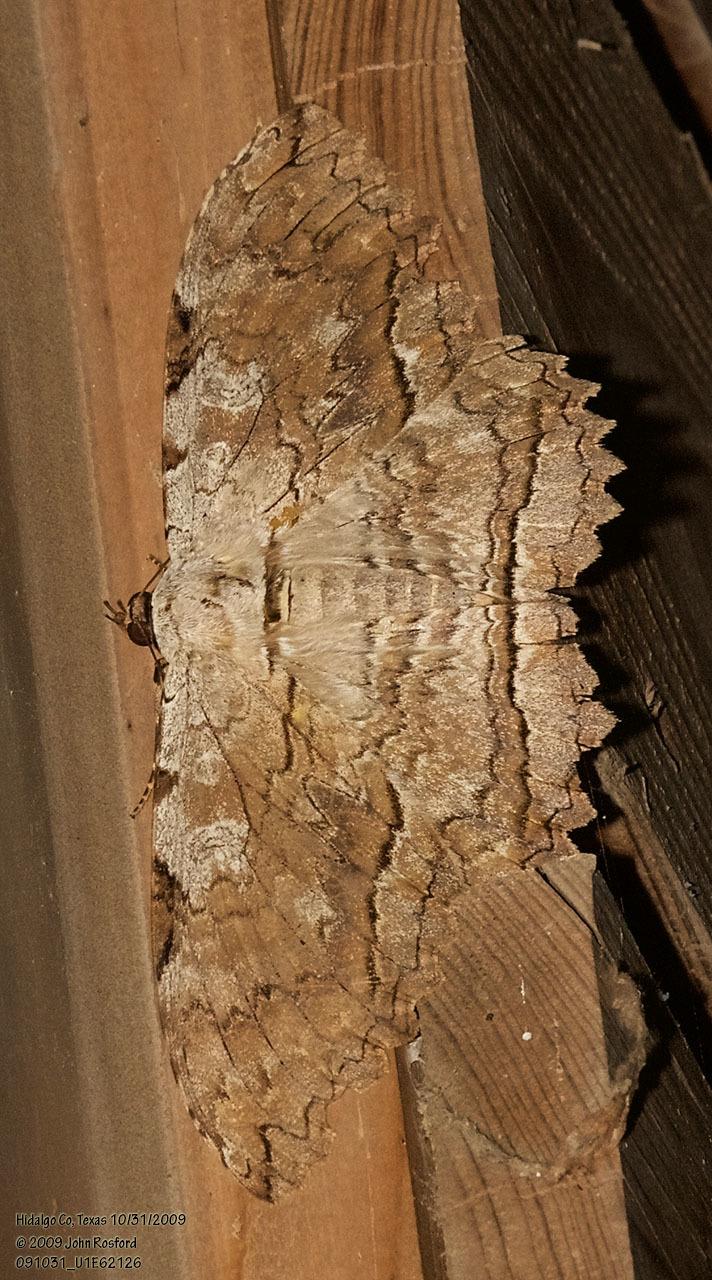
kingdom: Animalia
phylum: Arthropoda
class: Insecta
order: Lepidoptera
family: Erebidae
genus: Thysania
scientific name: Thysania zenobia
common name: Owl moth
